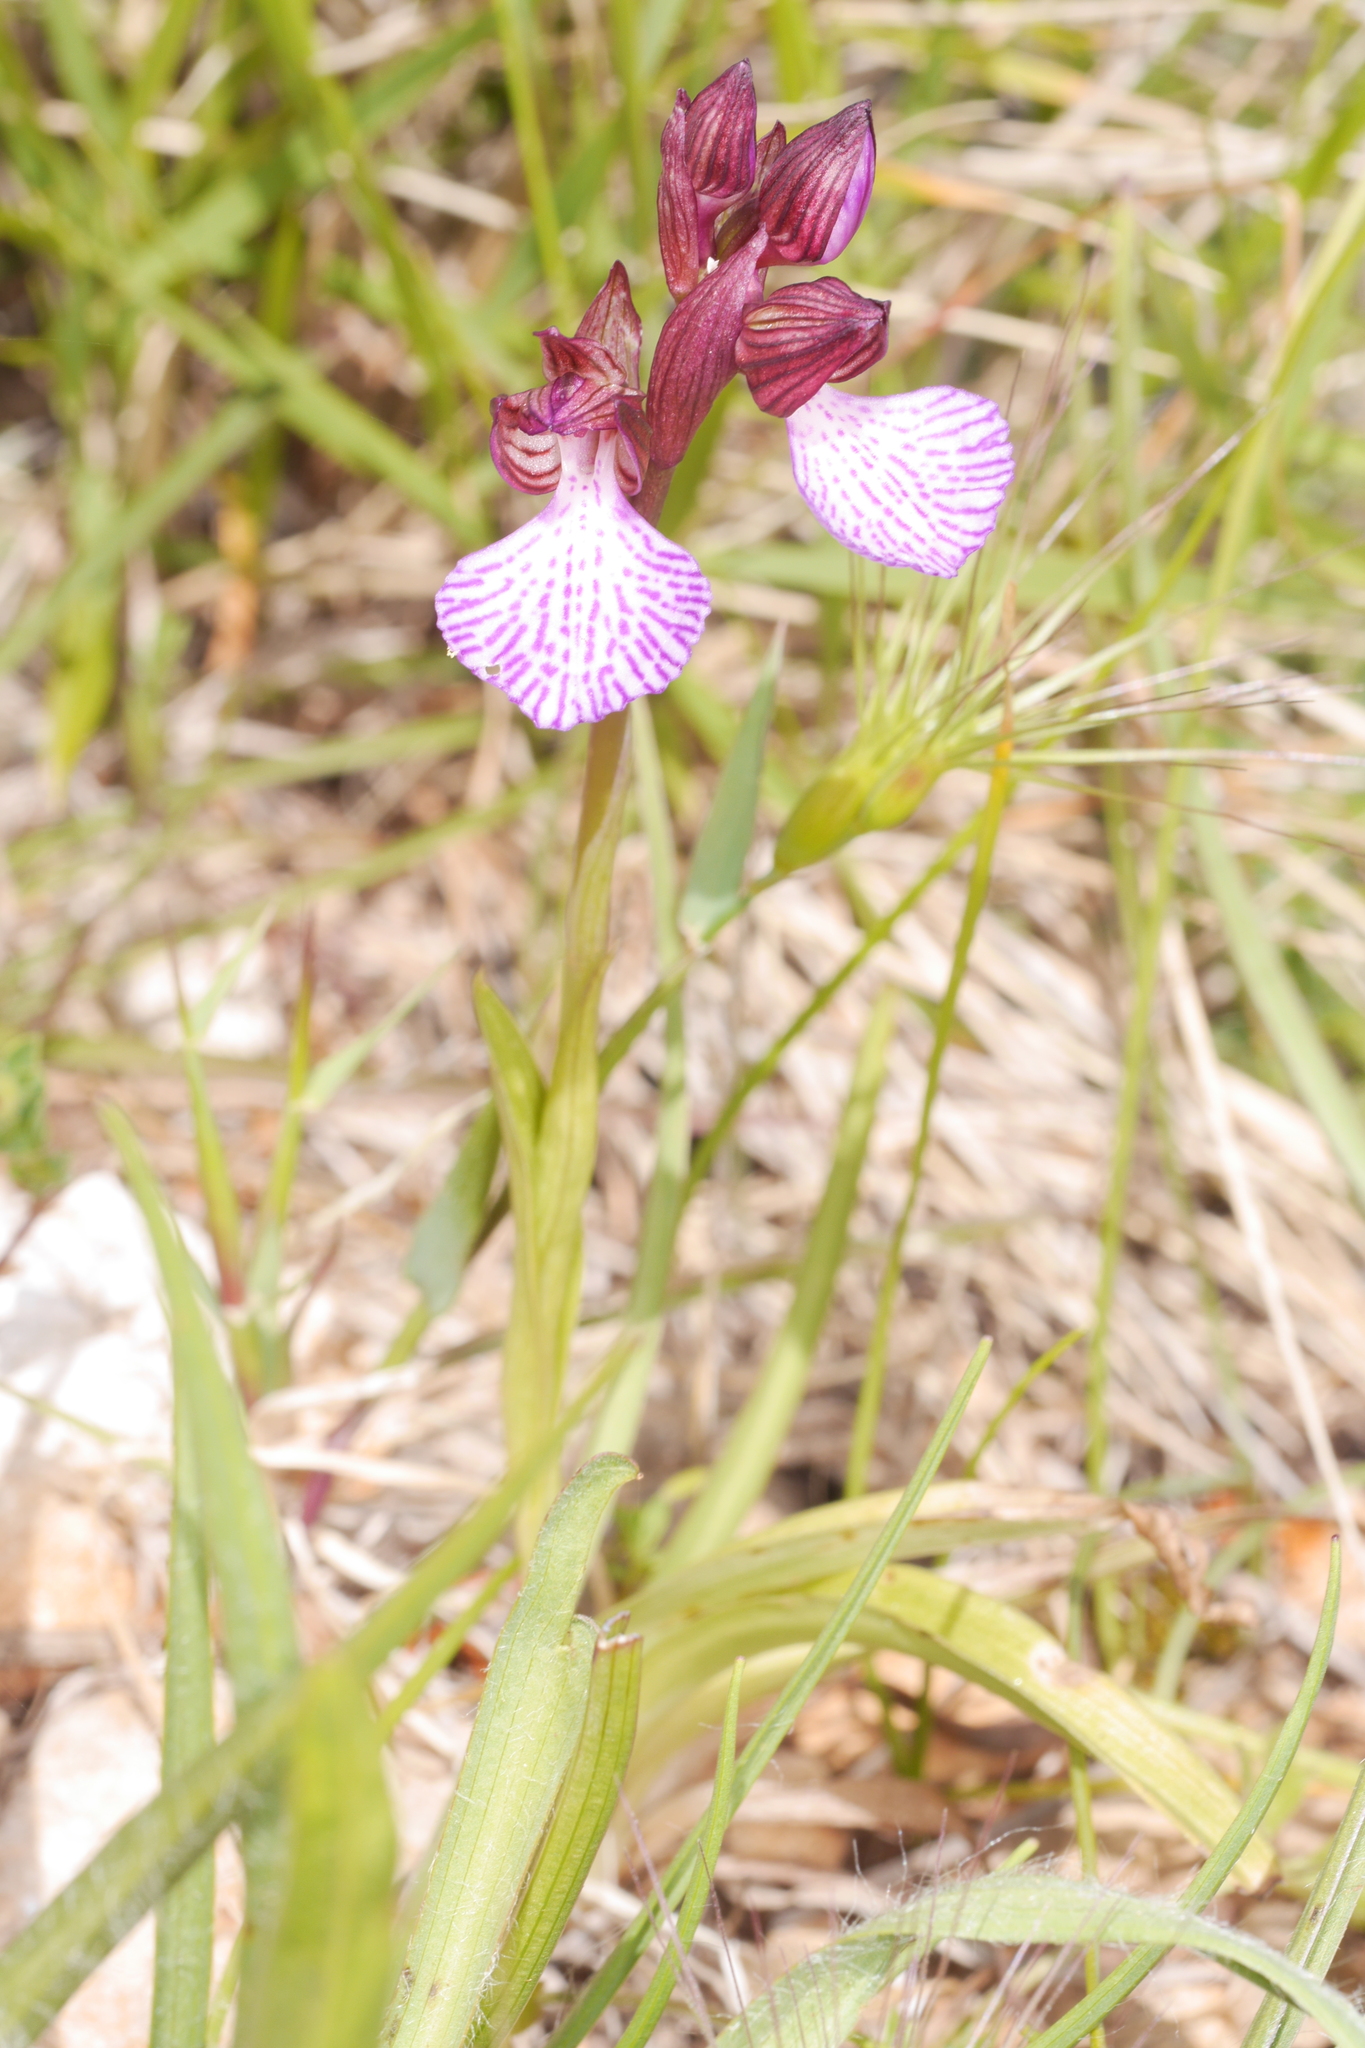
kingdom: Plantae
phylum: Tracheophyta
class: Liliopsida
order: Asparagales
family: Orchidaceae
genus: Anacamptis
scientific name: Anacamptis papilionacea
